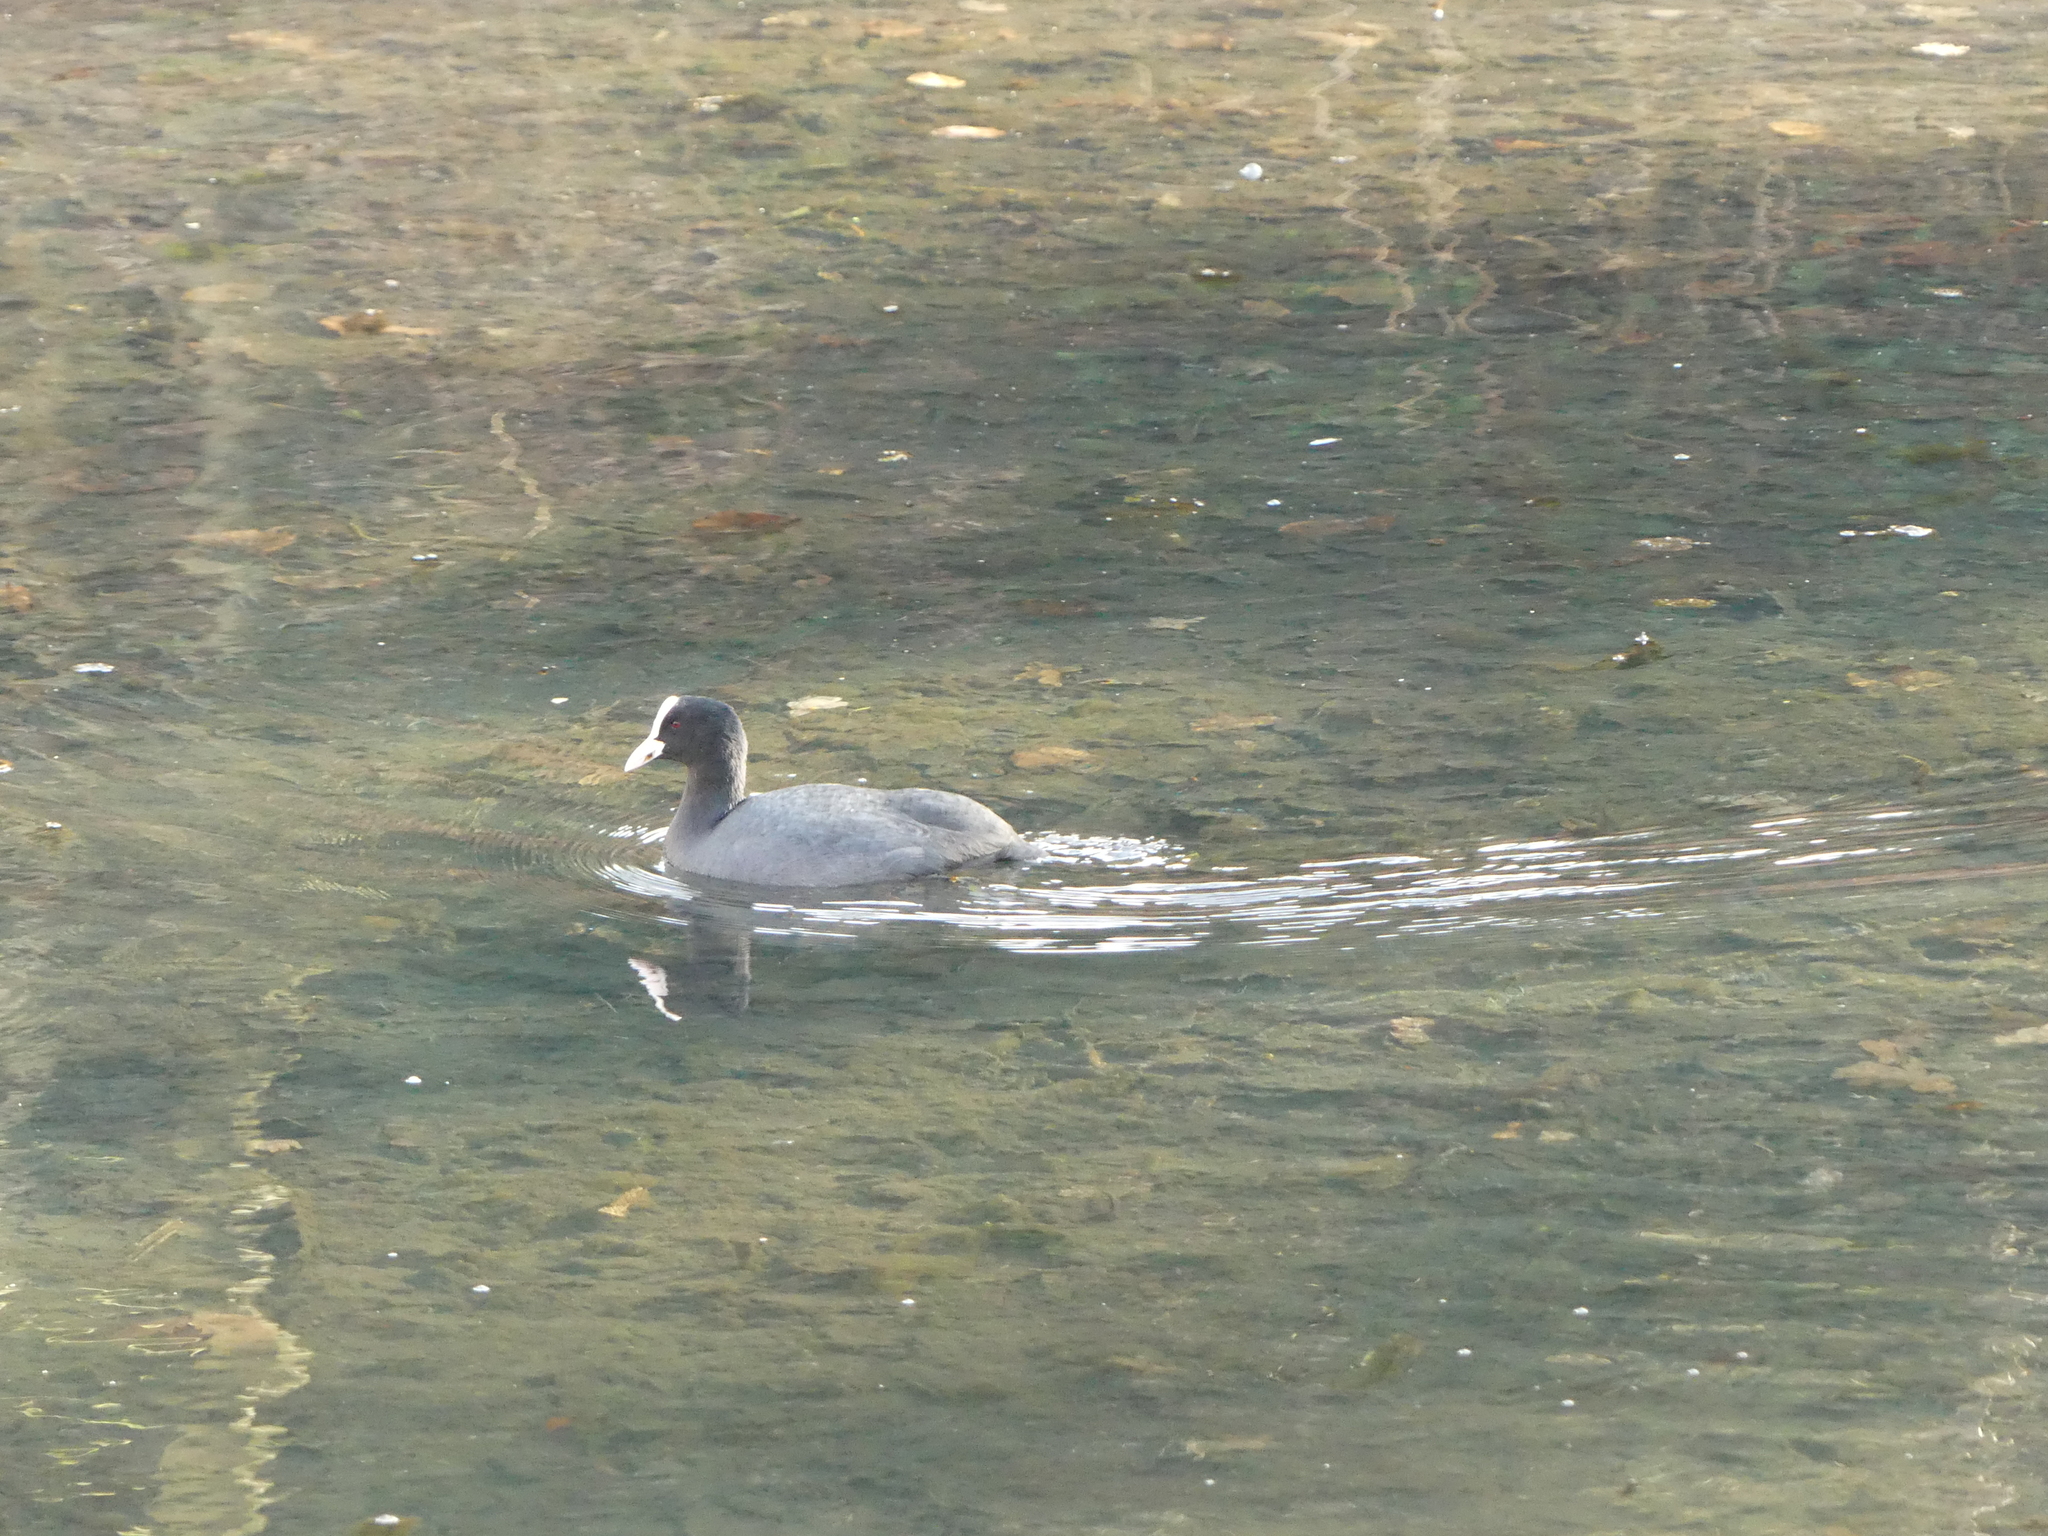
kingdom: Animalia
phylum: Chordata
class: Aves
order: Gruiformes
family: Rallidae
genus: Fulica
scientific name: Fulica atra
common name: Eurasian coot
